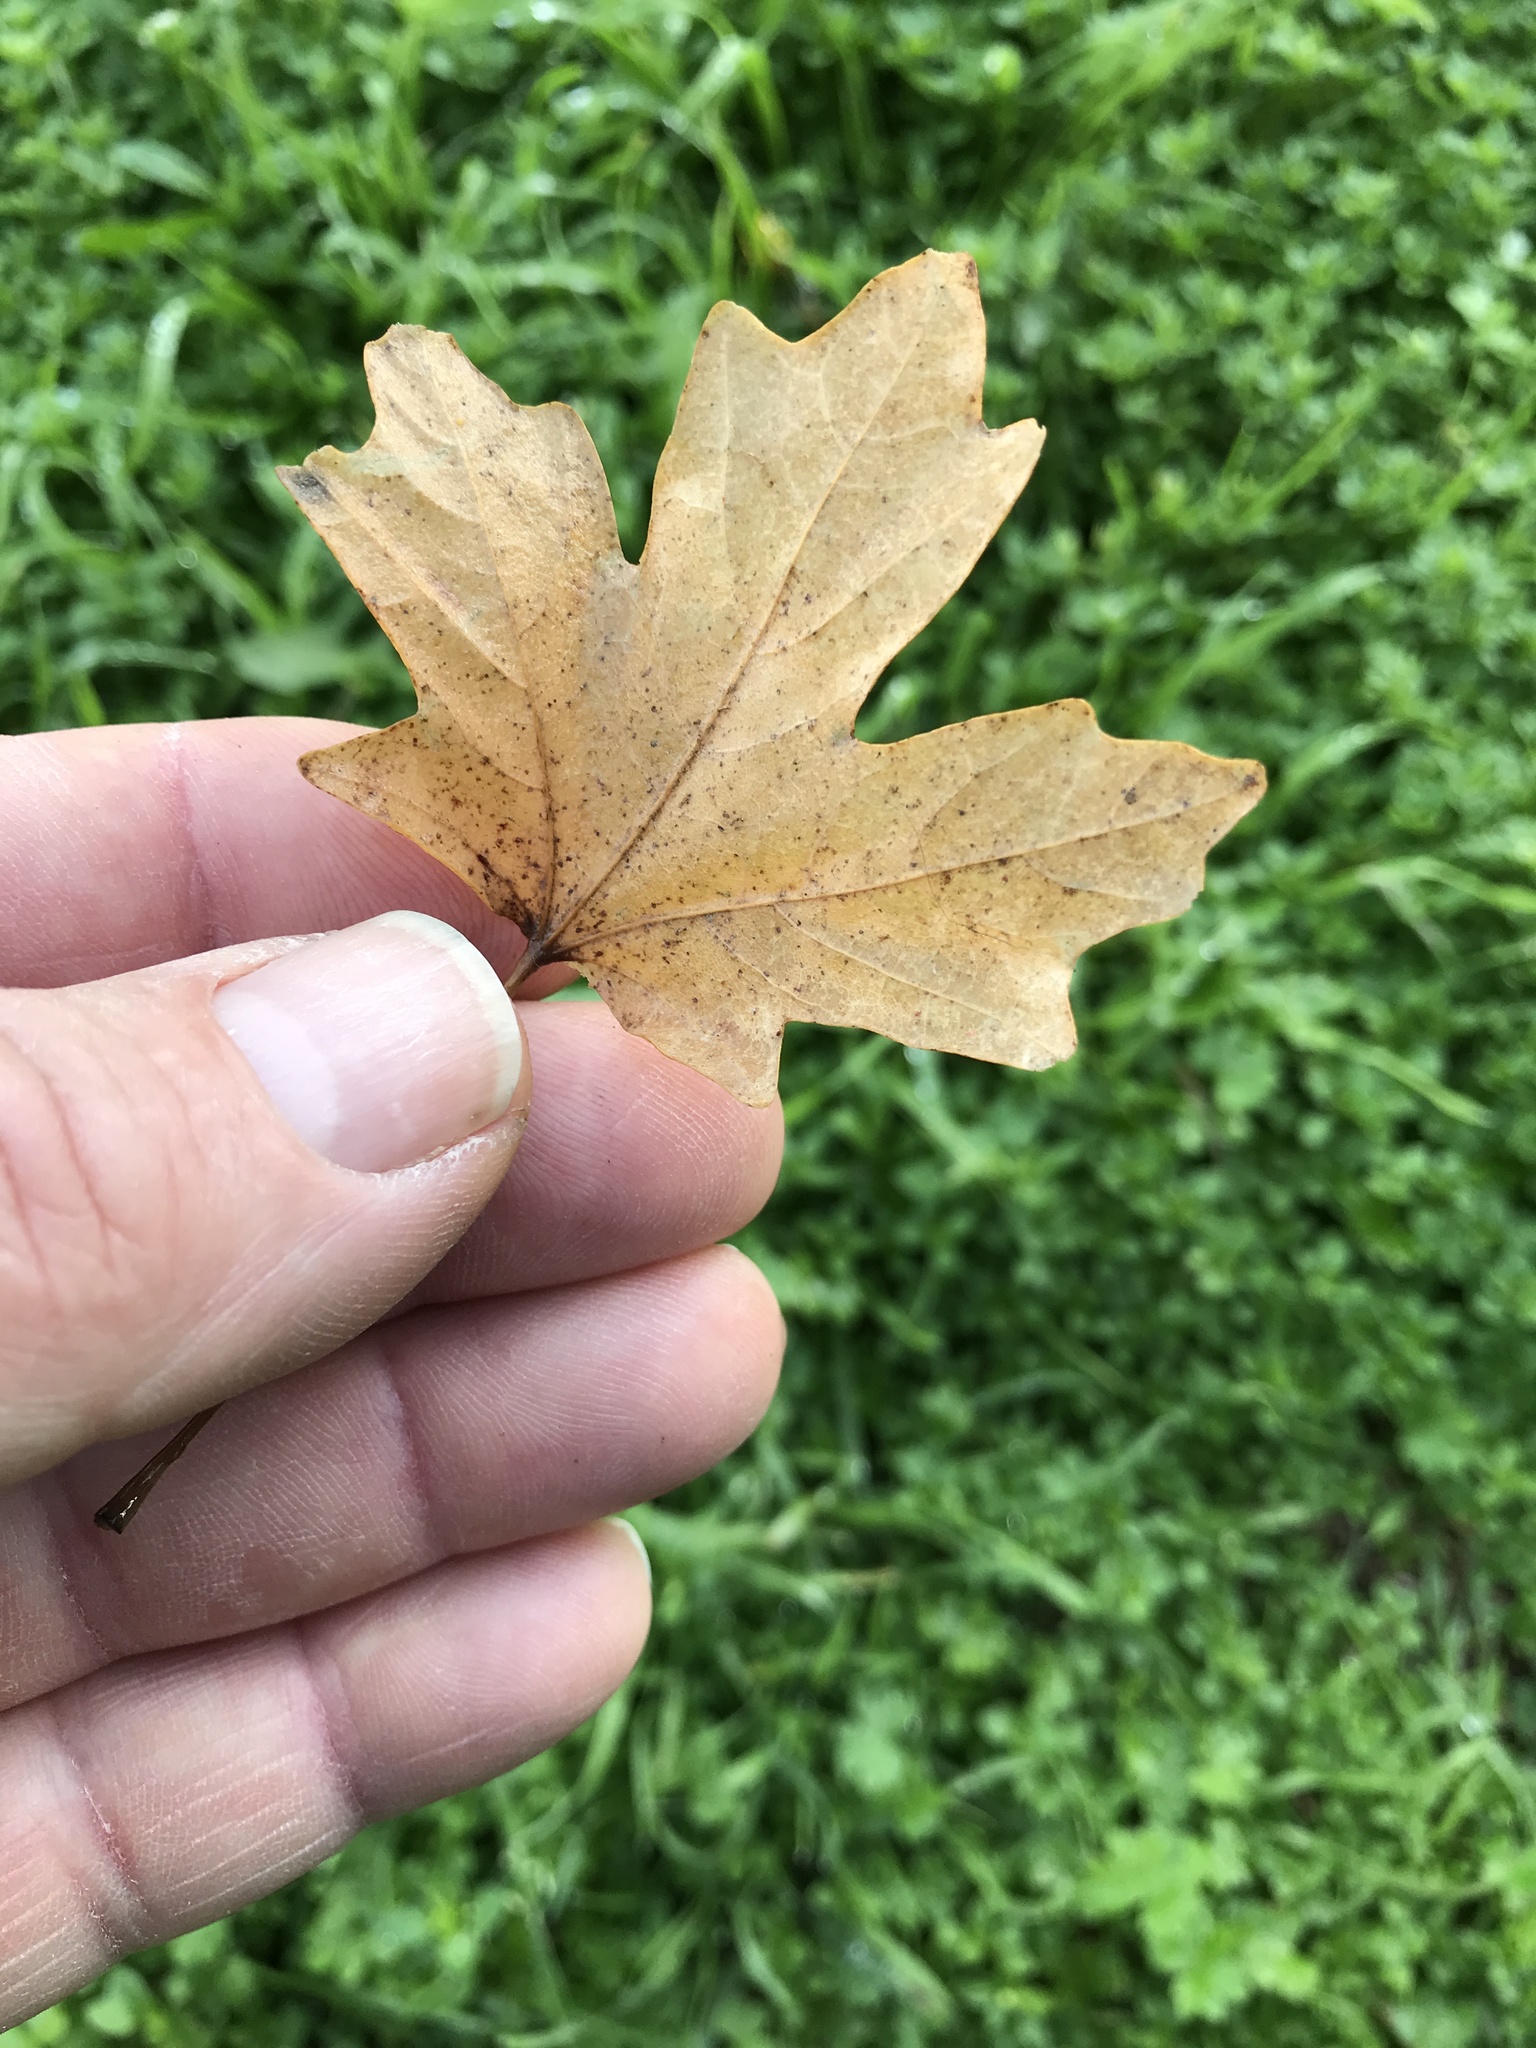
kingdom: Plantae
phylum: Tracheophyta
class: Magnoliopsida
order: Sapindales
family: Sapindaceae
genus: Acer
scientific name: Acer grandidentatum
